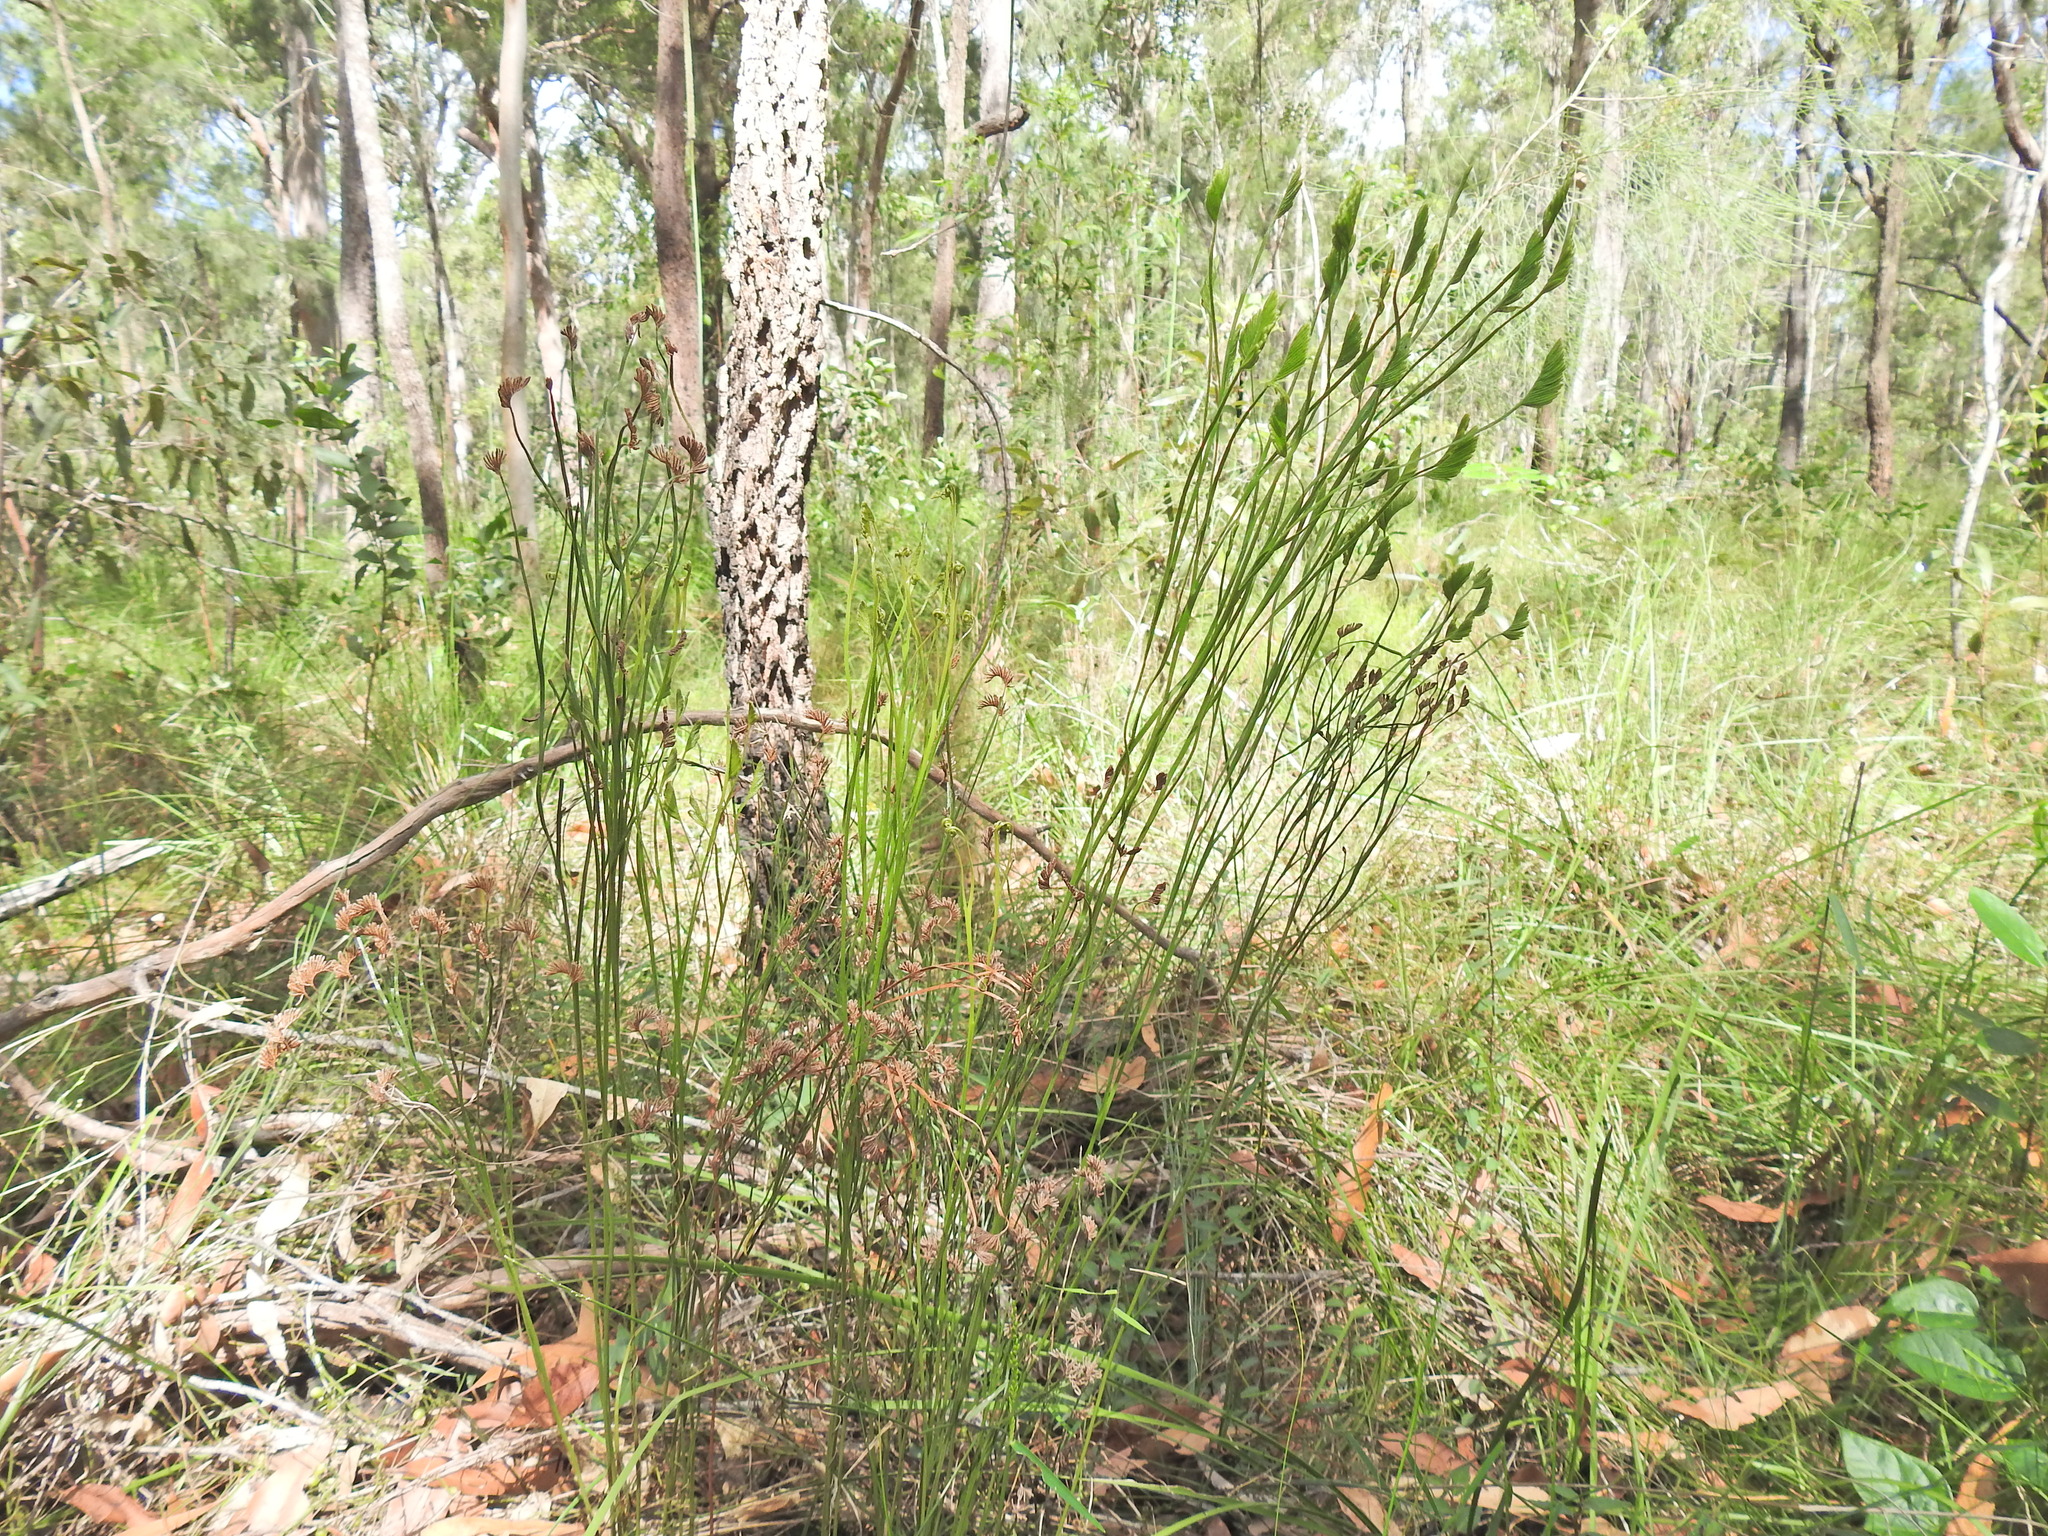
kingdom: Plantae
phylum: Tracheophyta
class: Polypodiopsida
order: Schizaeales
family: Schizaeaceae
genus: Schizaea
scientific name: Schizaea bifida
